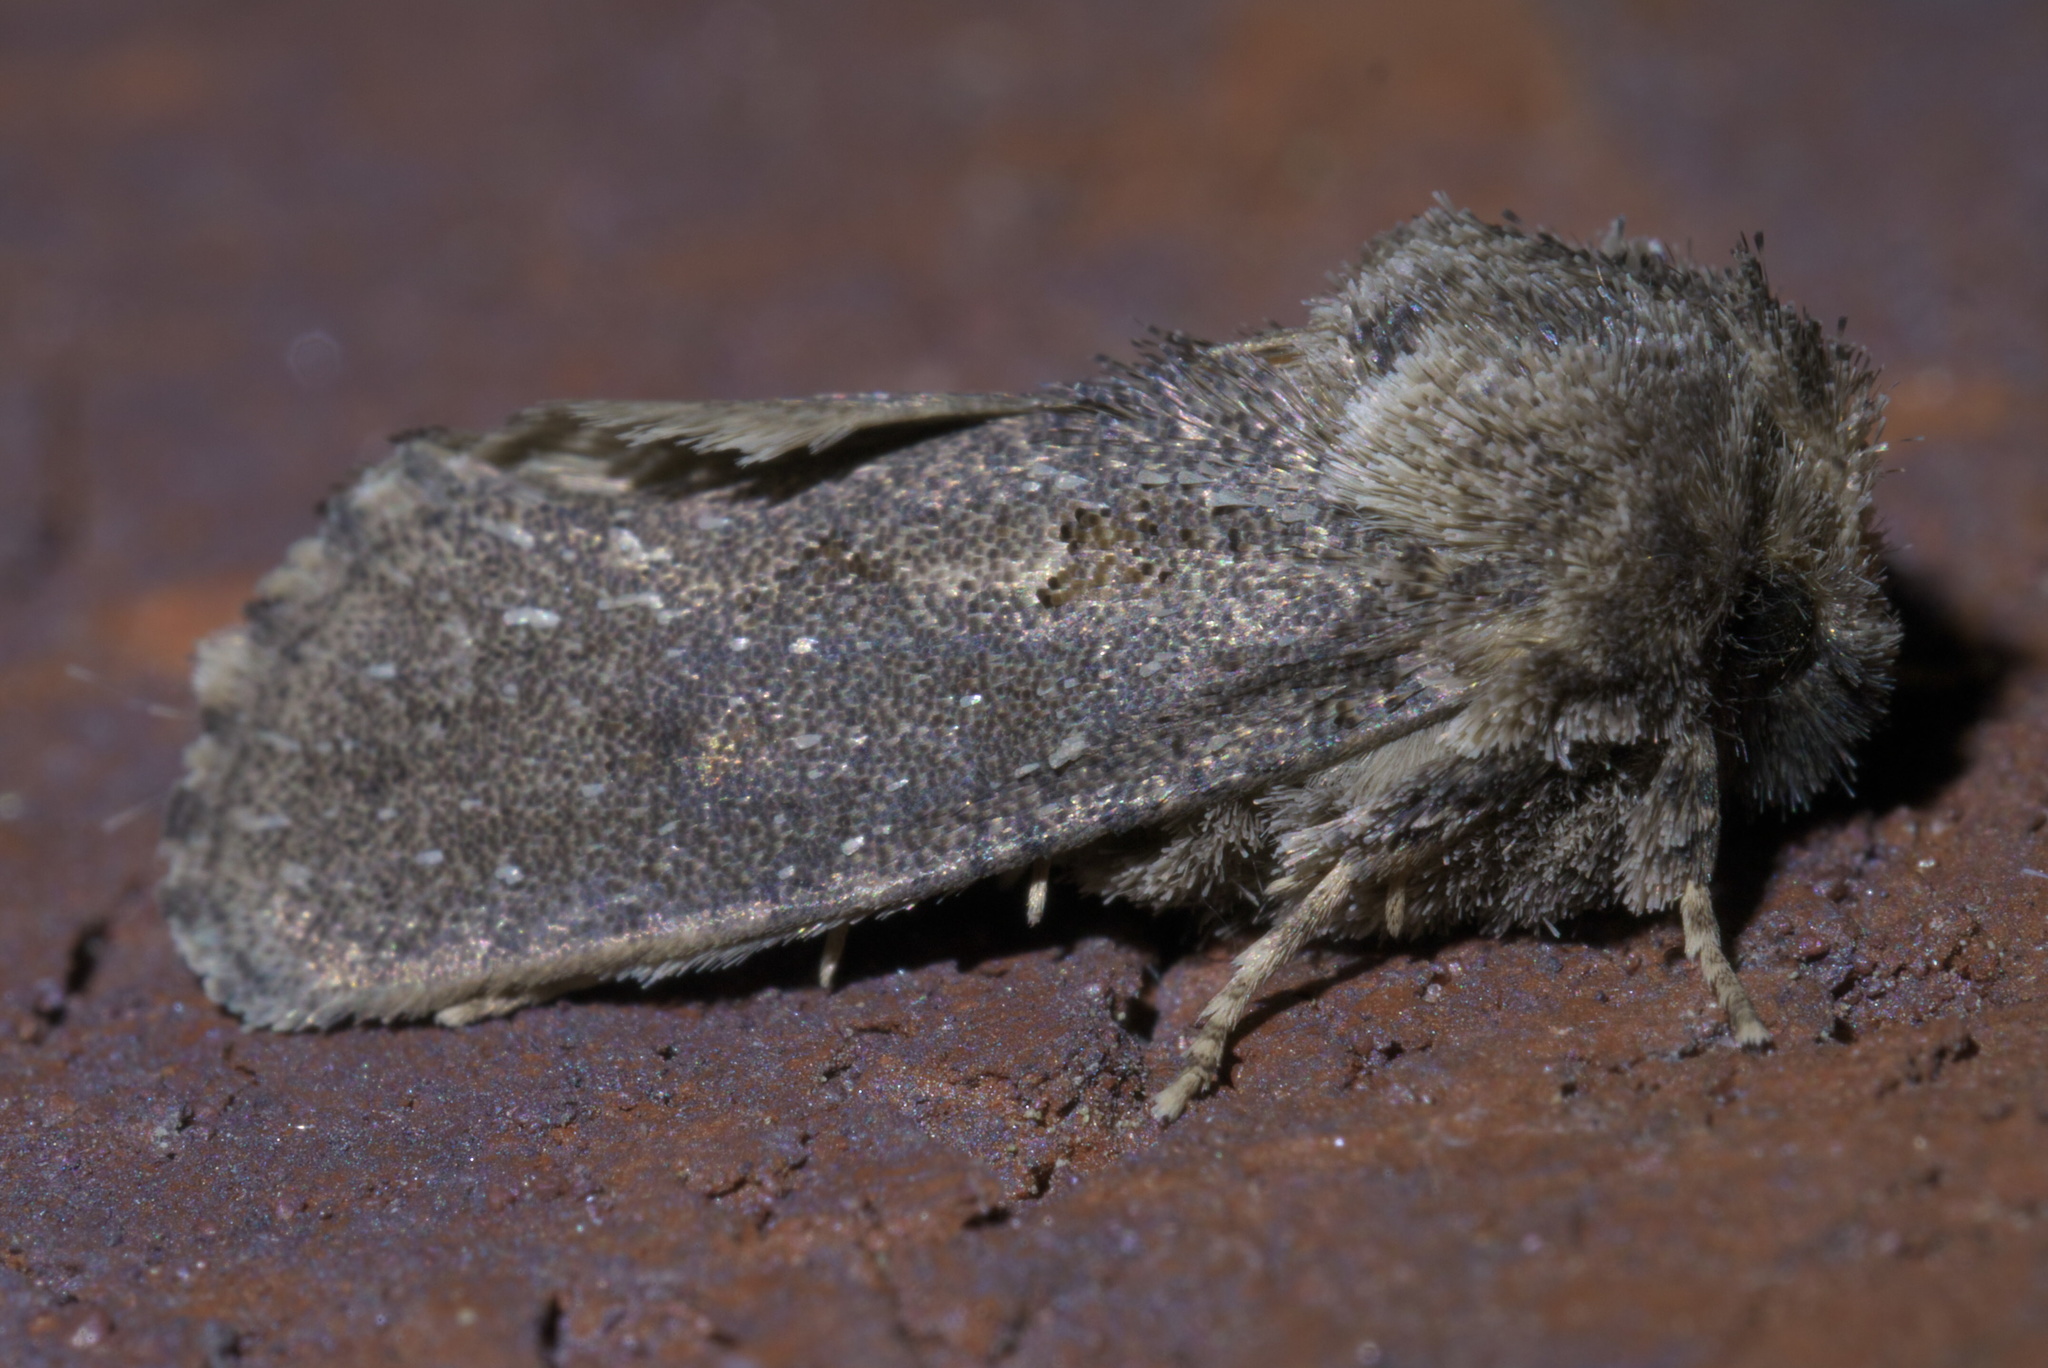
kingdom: Animalia
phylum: Arthropoda
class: Insecta
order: Lepidoptera
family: Tineidae
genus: Acrolophus
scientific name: Acrolophus arcanella
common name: Arcane grass tubeworm moth
